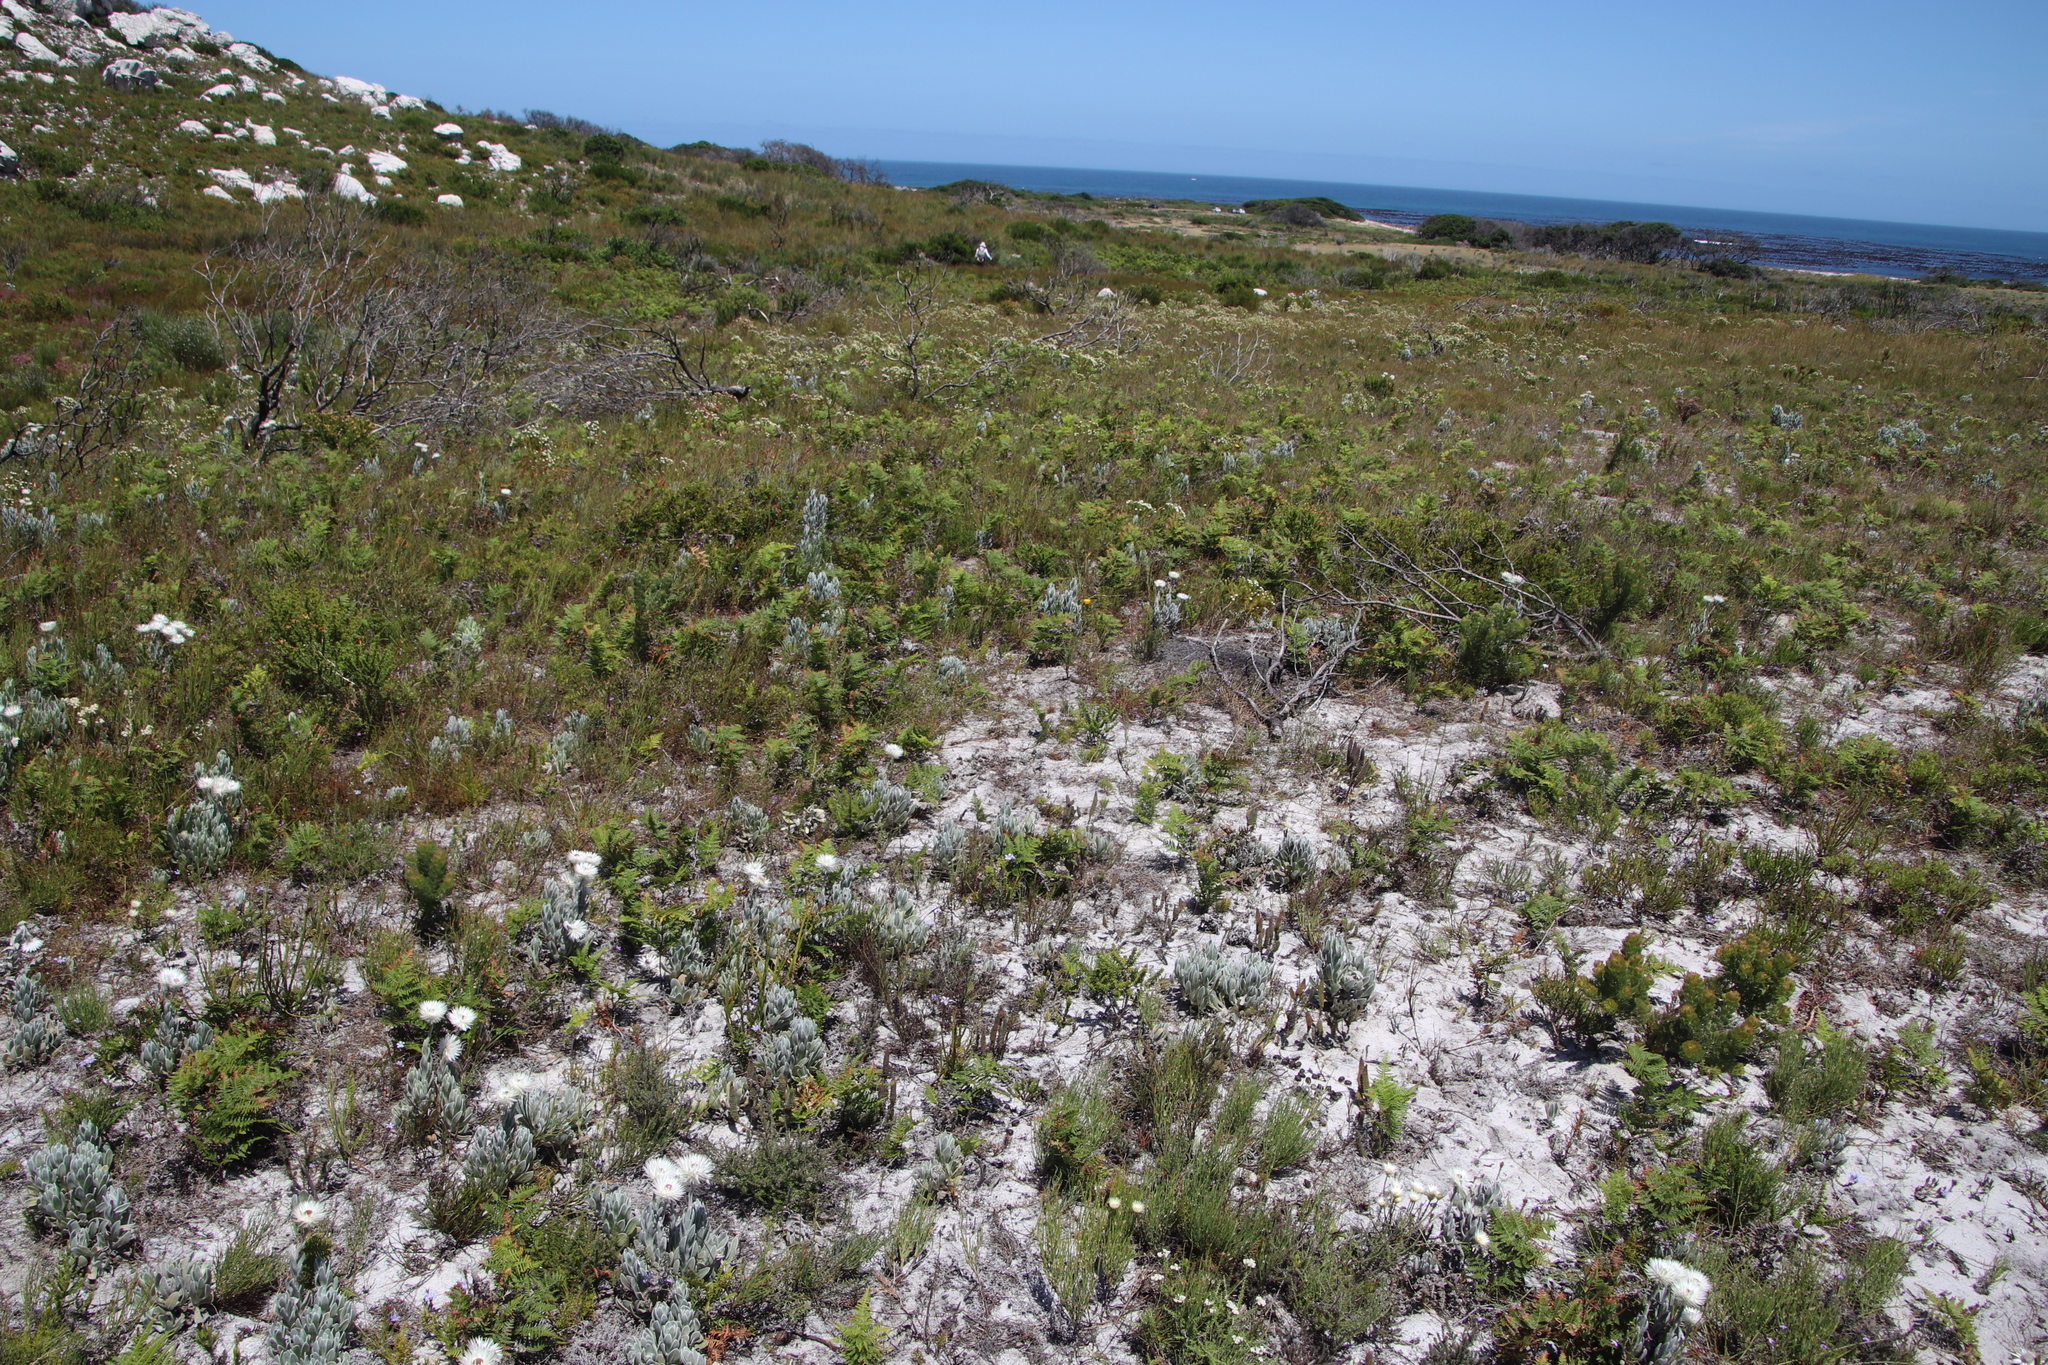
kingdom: Plantae
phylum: Tracheophyta
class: Polypodiopsida
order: Polypodiales
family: Dennstaedtiaceae
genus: Pteridium
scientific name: Pteridium aquilinum
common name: Bracken
